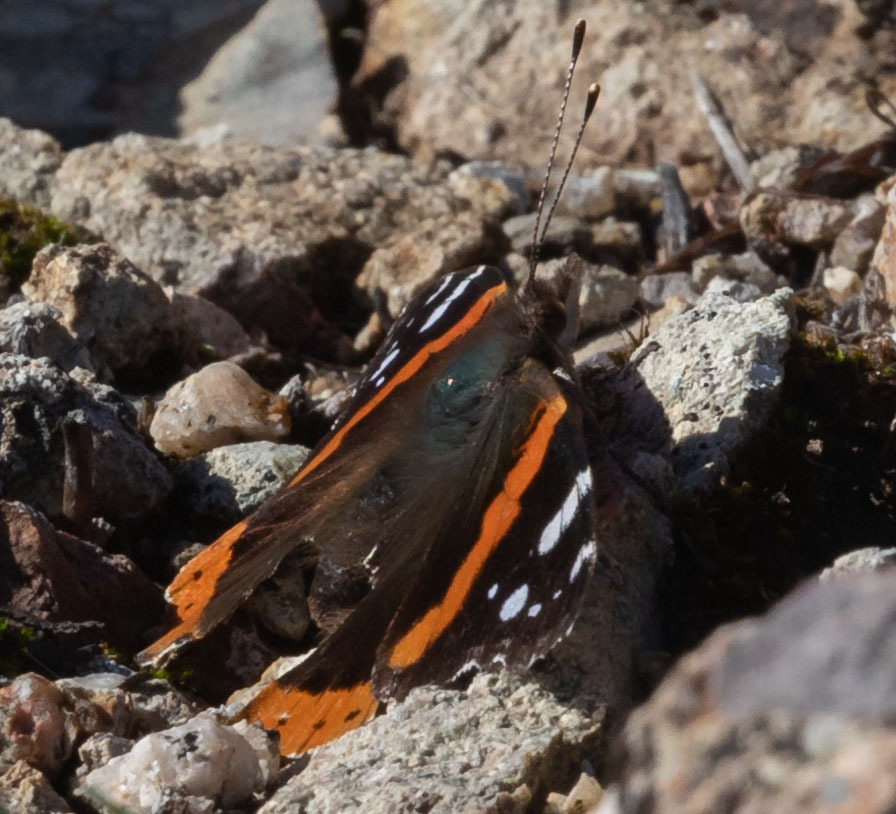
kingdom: Animalia
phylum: Arthropoda
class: Insecta
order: Lepidoptera
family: Nymphalidae
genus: Vanessa
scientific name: Vanessa atalanta
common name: Red admiral
